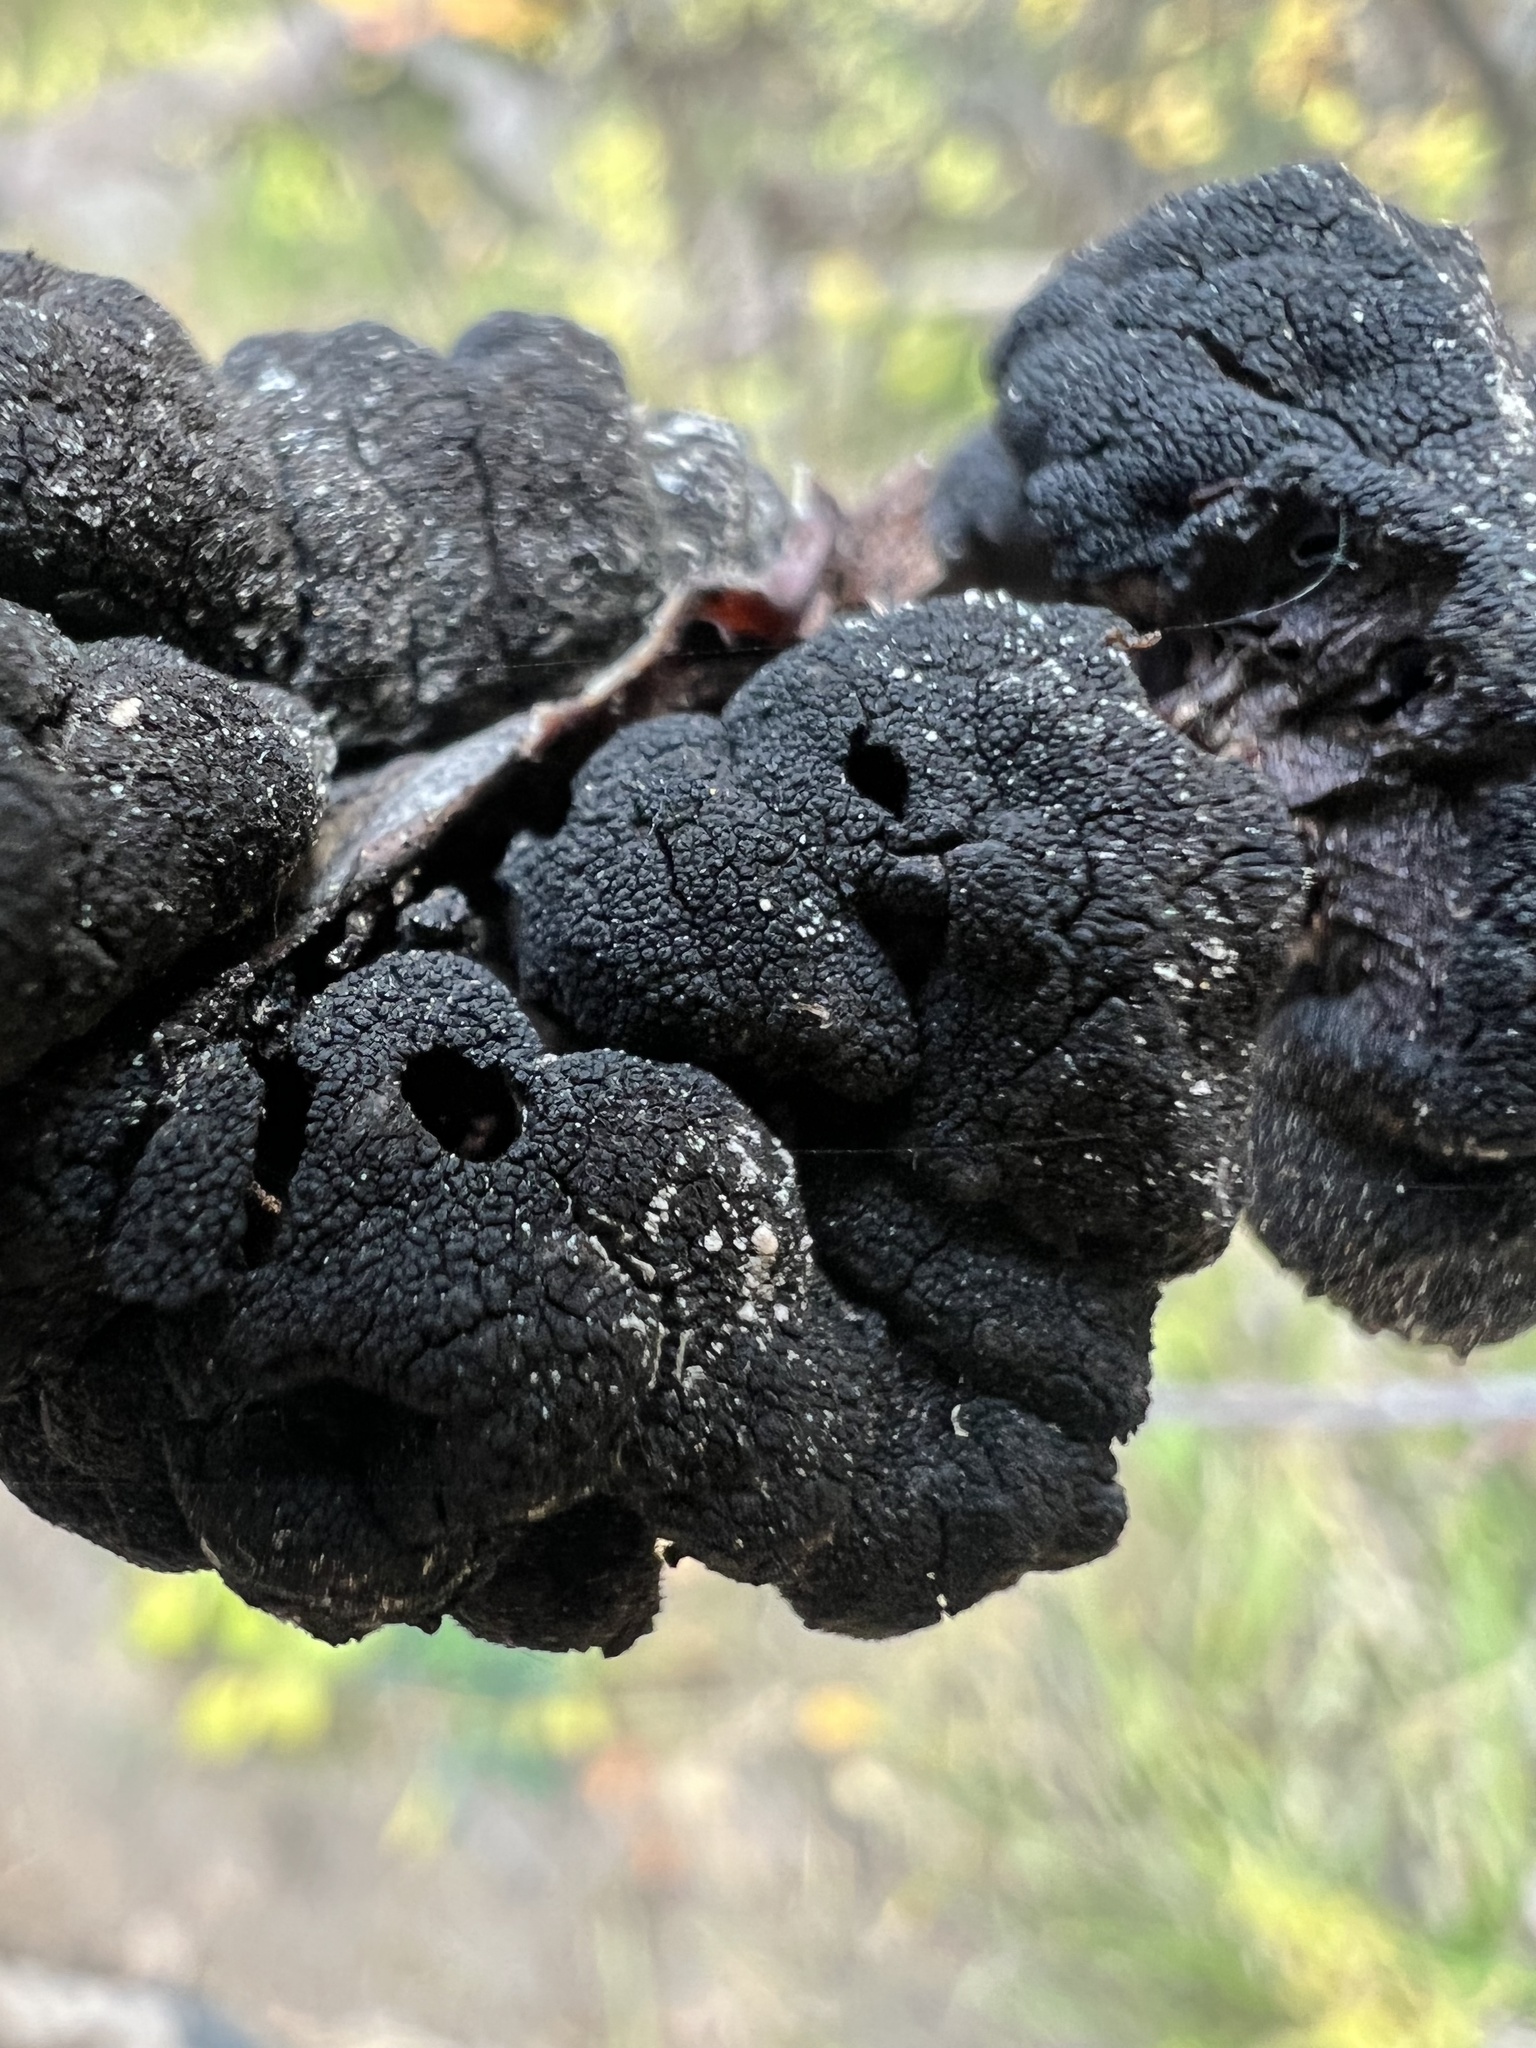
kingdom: Fungi
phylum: Ascomycota
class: Dothideomycetes
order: Venturiales
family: Venturiaceae
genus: Apiosporina
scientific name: Apiosporina morbosa
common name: Black knot
